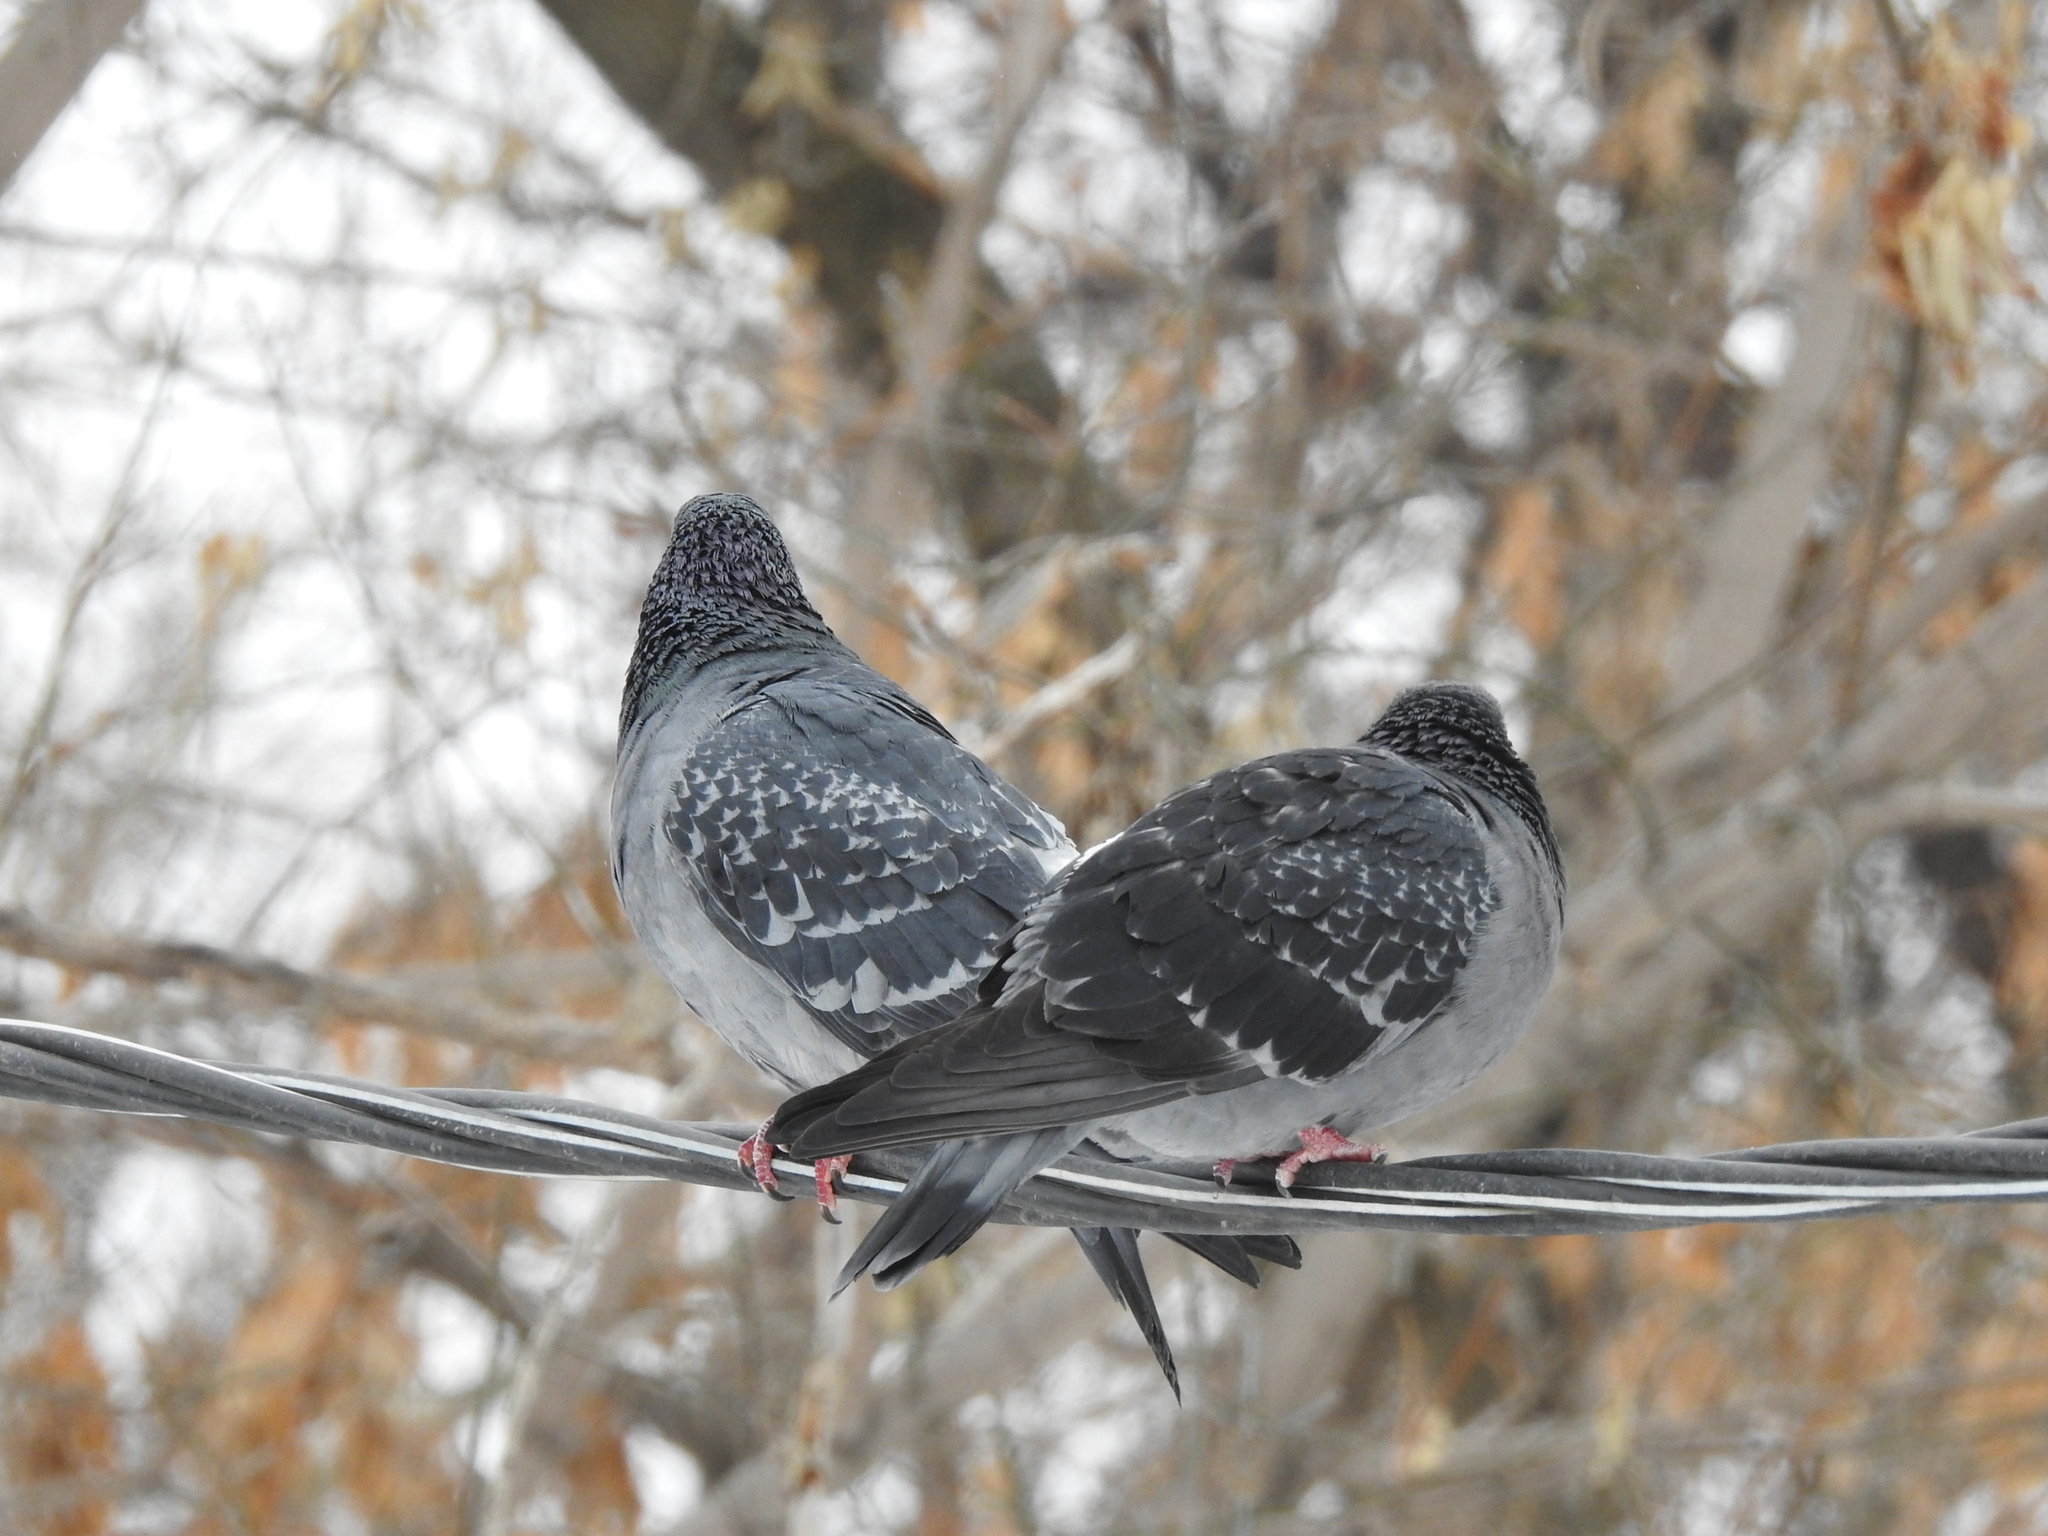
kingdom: Animalia
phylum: Chordata
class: Aves
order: Columbiformes
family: Columbidae
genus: Columba
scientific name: Columba livia
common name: Rock pigeon
